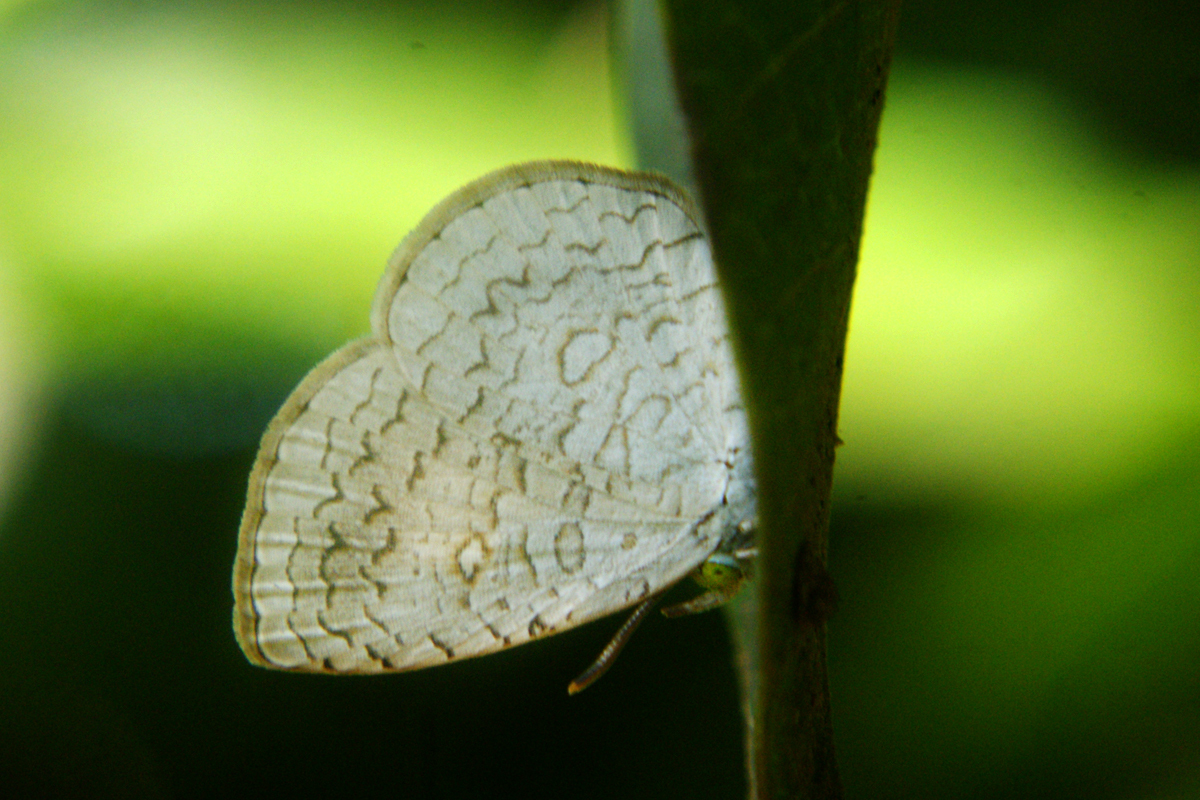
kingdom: Animalia
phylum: Arthropoda
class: Insecta
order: Lepidoptera
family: Lycaenidae
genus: Spalgis
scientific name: Spalgis epius
